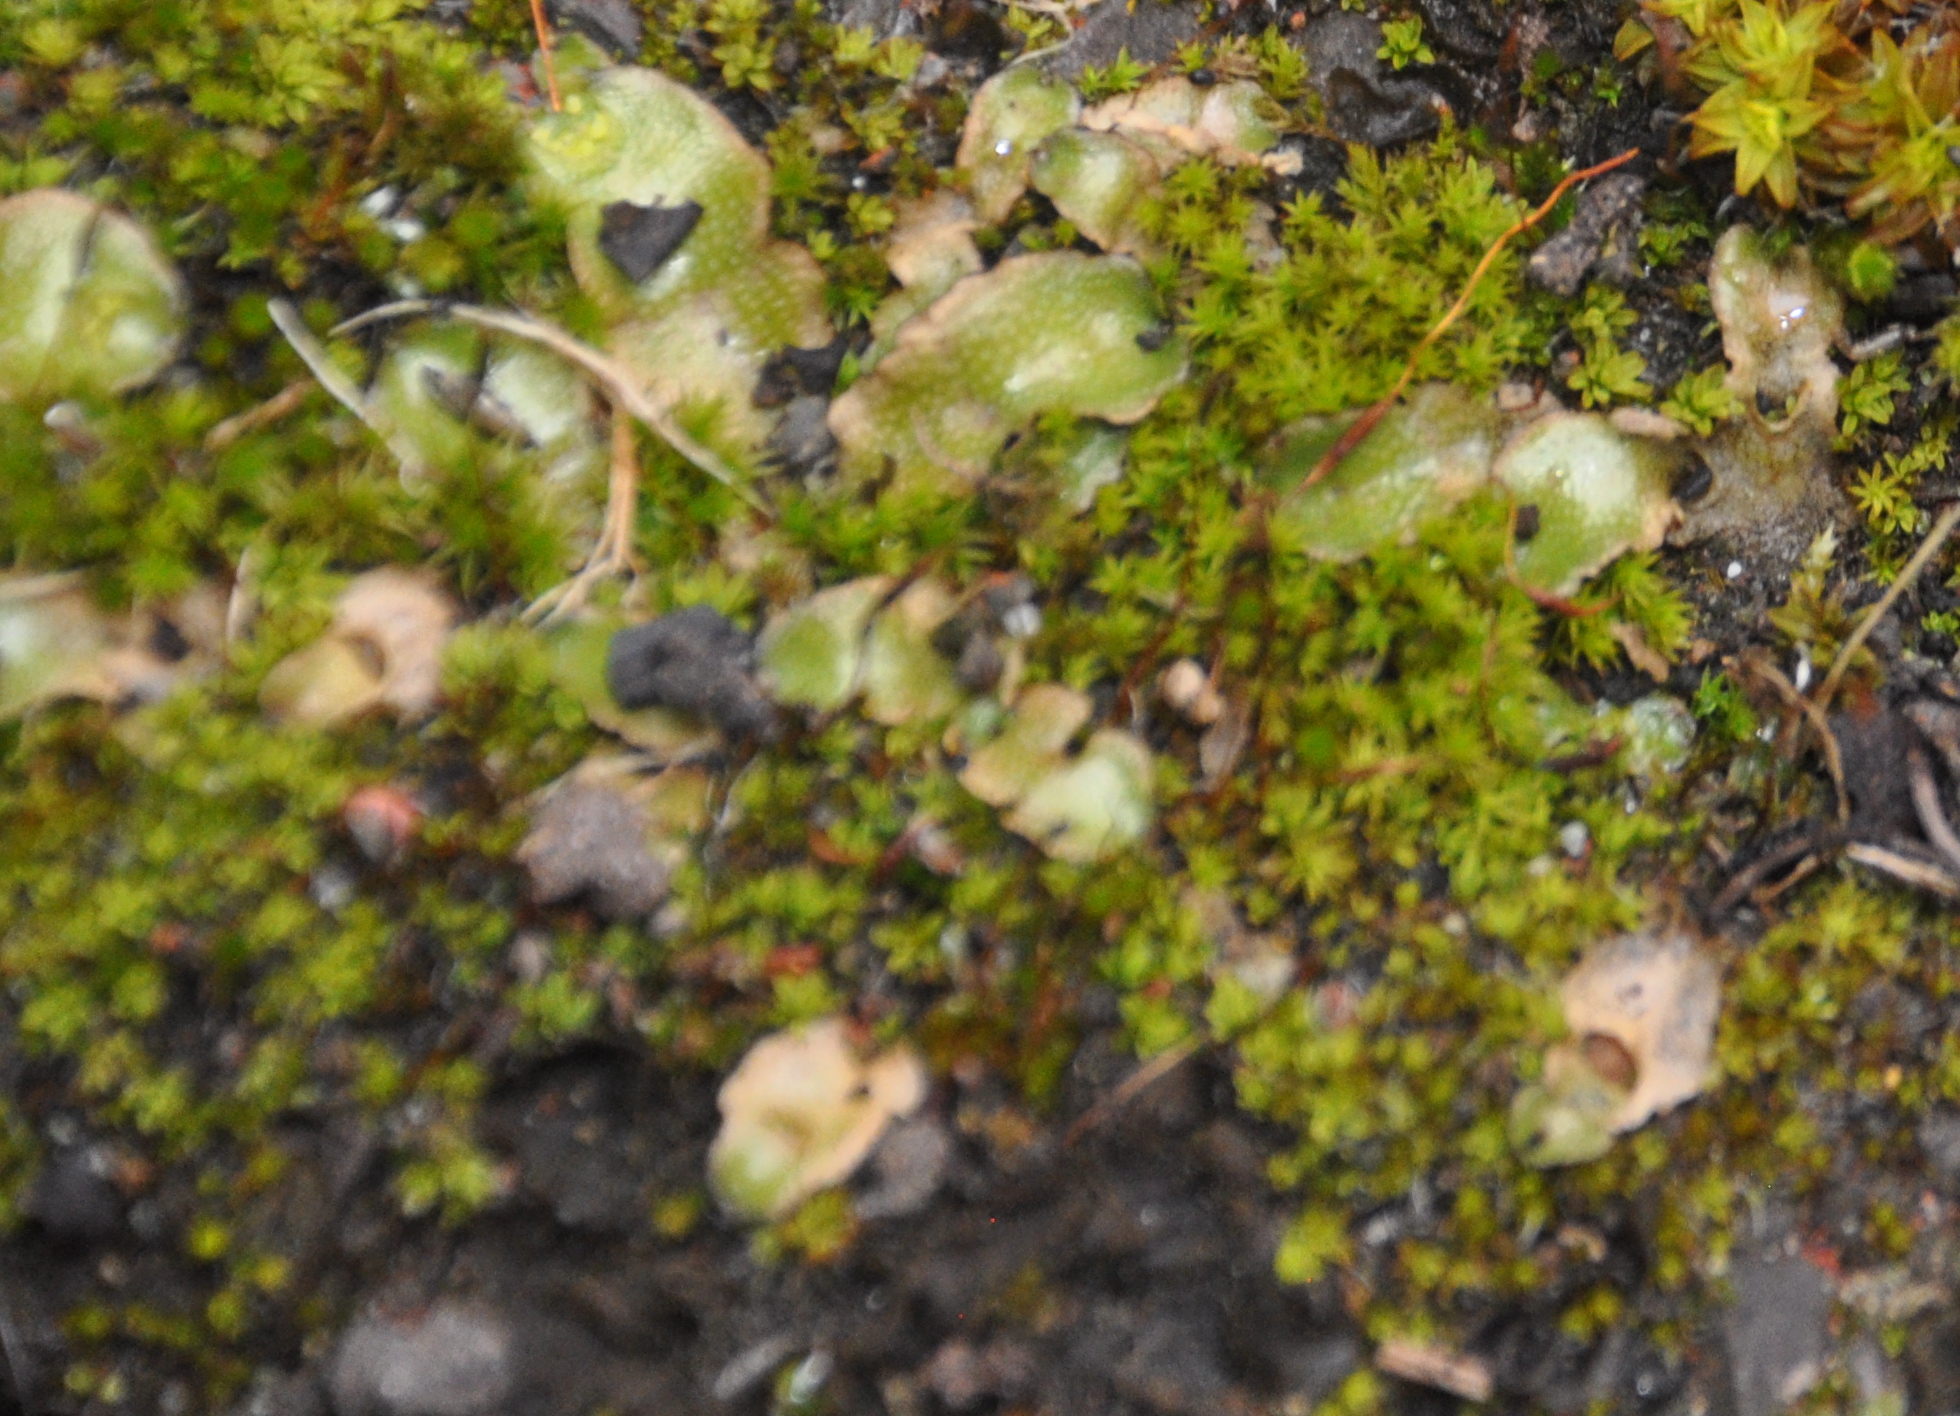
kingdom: Plantae
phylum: Marchantiophyta
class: Marchantiopsida
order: Lunulariales
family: Lunulariaceae
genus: Lunularia
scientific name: Lunularia cruciata
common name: Crescent-cup liverwort
